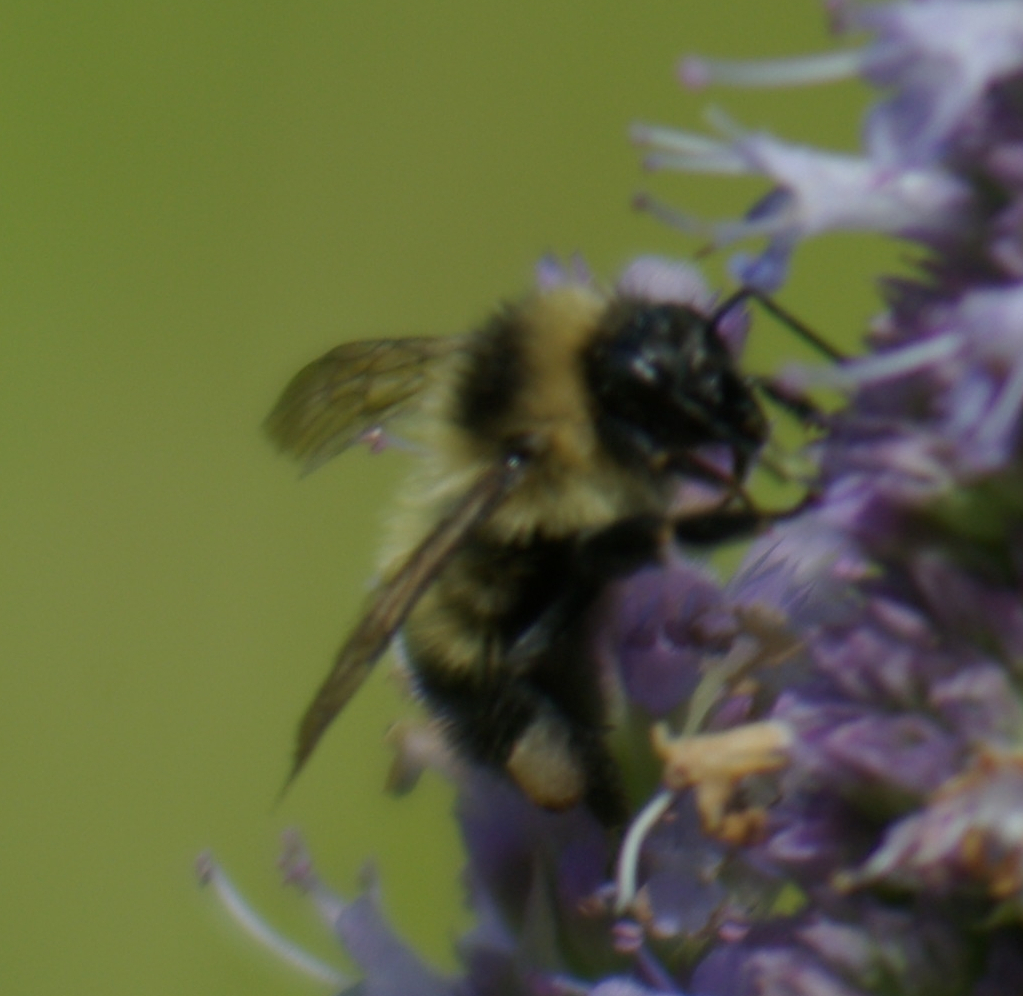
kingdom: Animalia
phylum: Arthropoda
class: Insecta
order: Hymenoptera
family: Apidae
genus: Pyrobombus
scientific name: Pyrobombus
